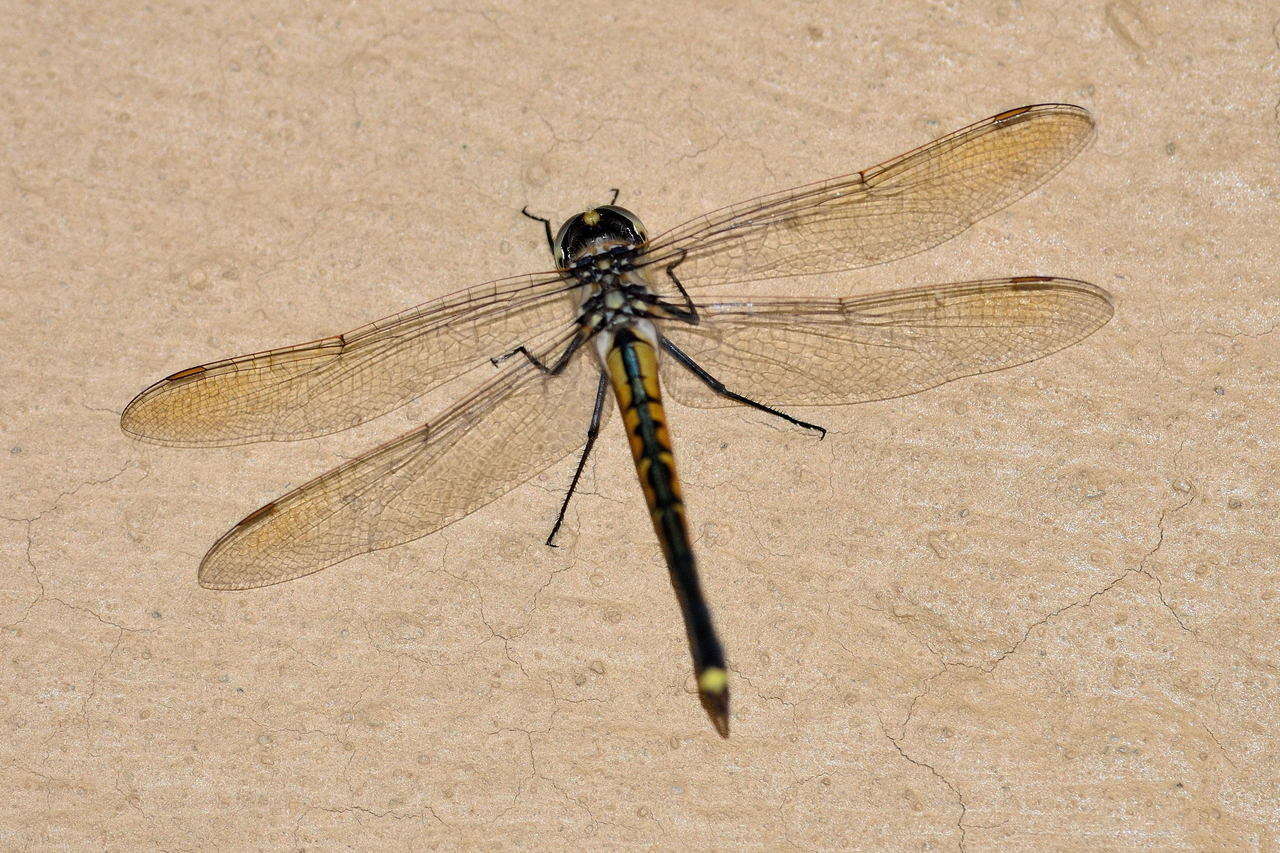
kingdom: Animalia
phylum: Arthropoda
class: Insecta
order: Odonata
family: Corduliidae
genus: Hemicordulia
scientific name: Hemicordulia tau
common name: Tau emerald
